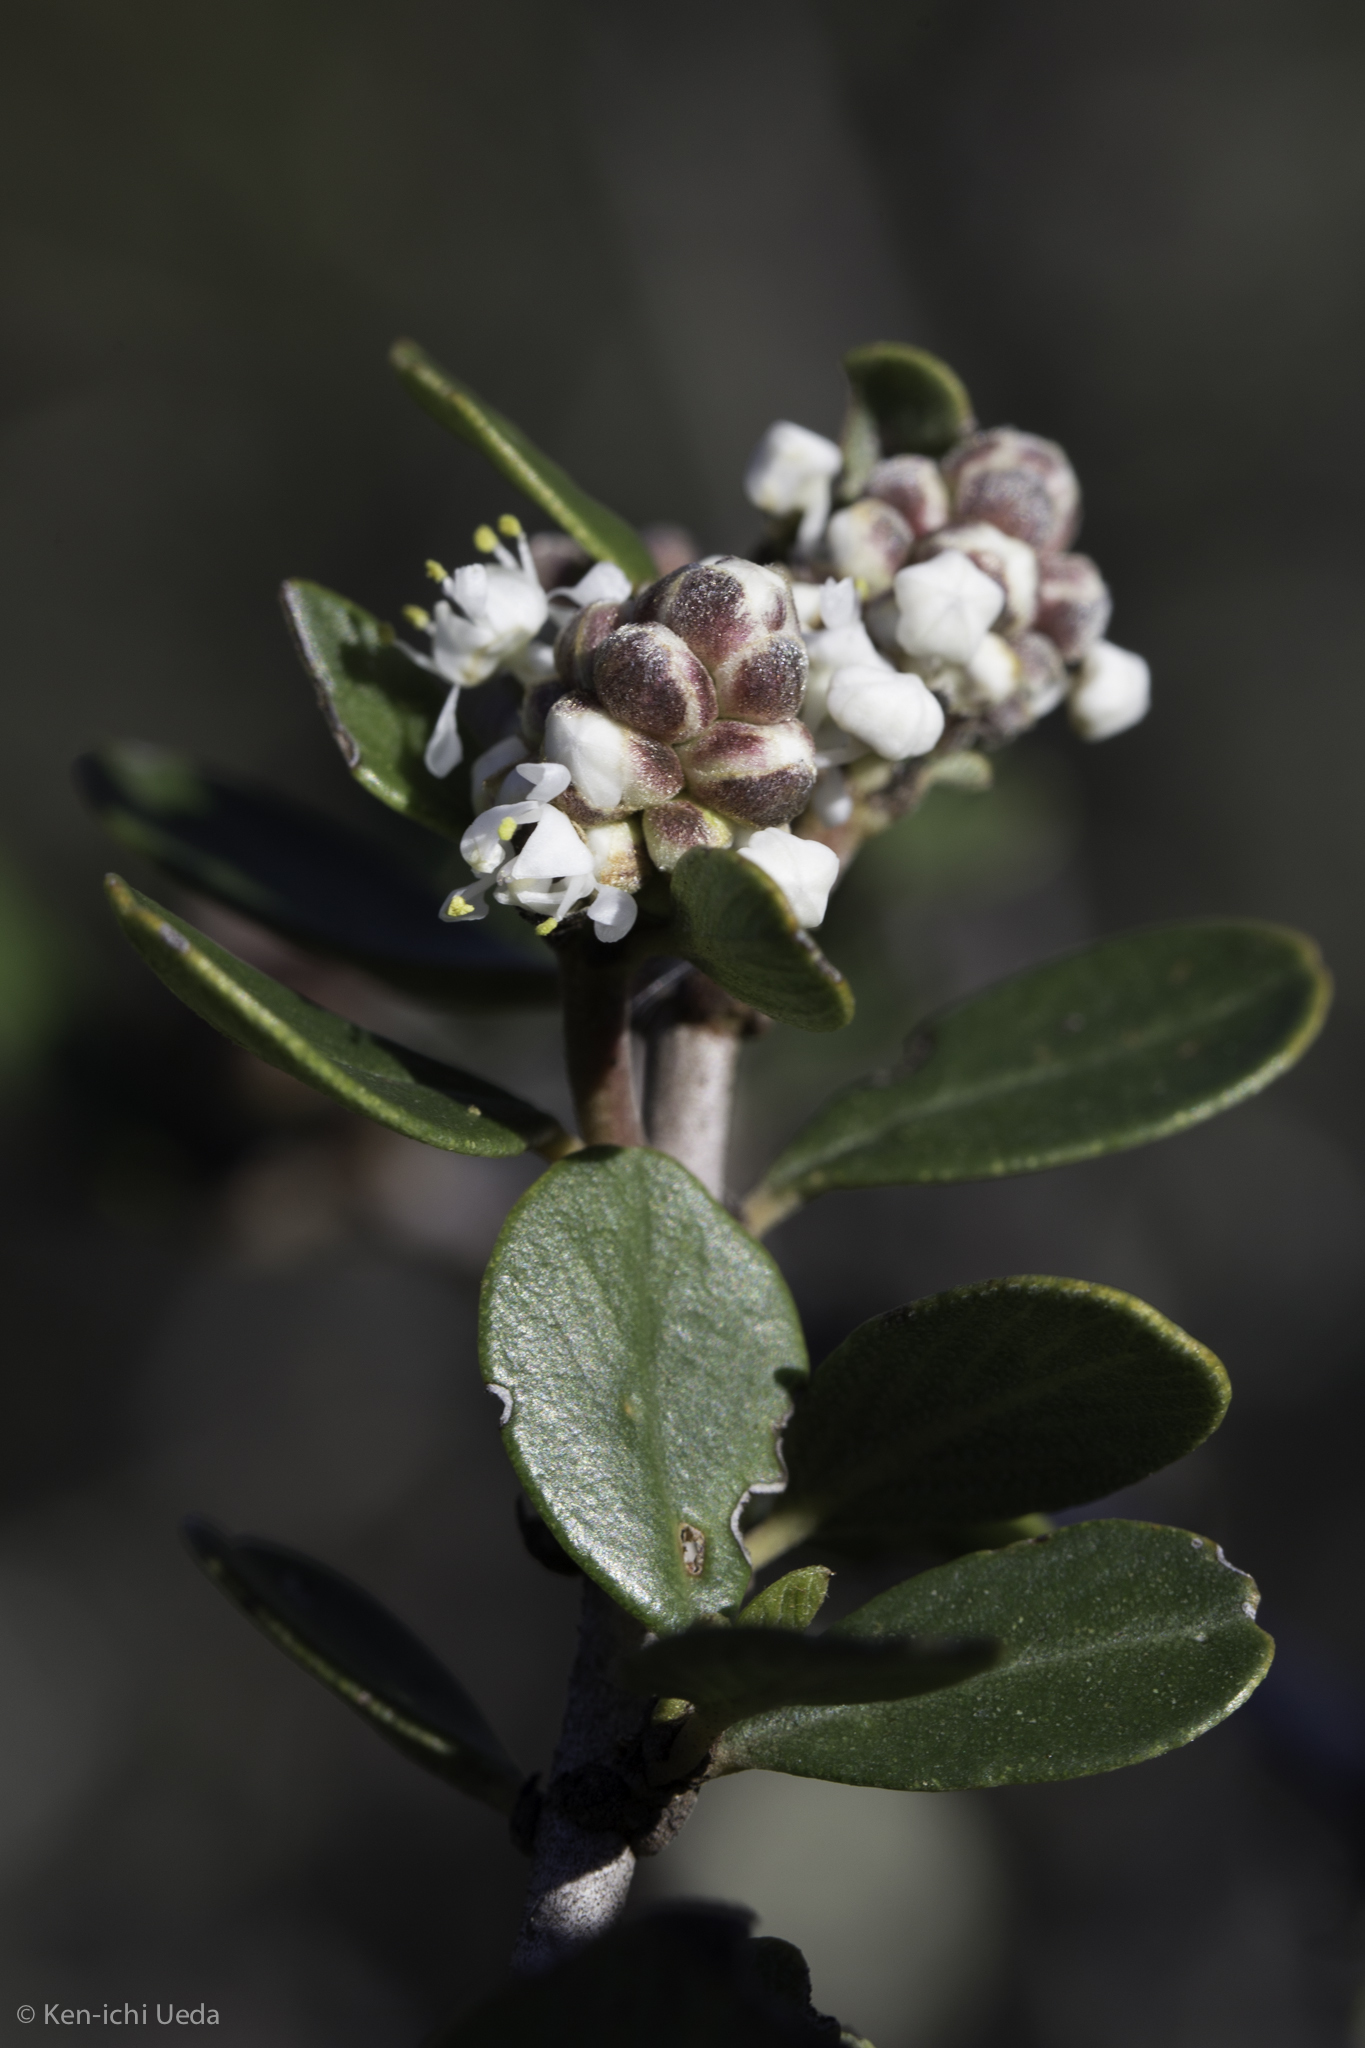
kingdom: Plantae
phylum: Tracheophyta
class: Magnoliopsida
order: Rosales
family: Rhamnaceae
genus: Ceanothus
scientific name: Ceanothus cuneatus
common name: Cuneate ceanothus
